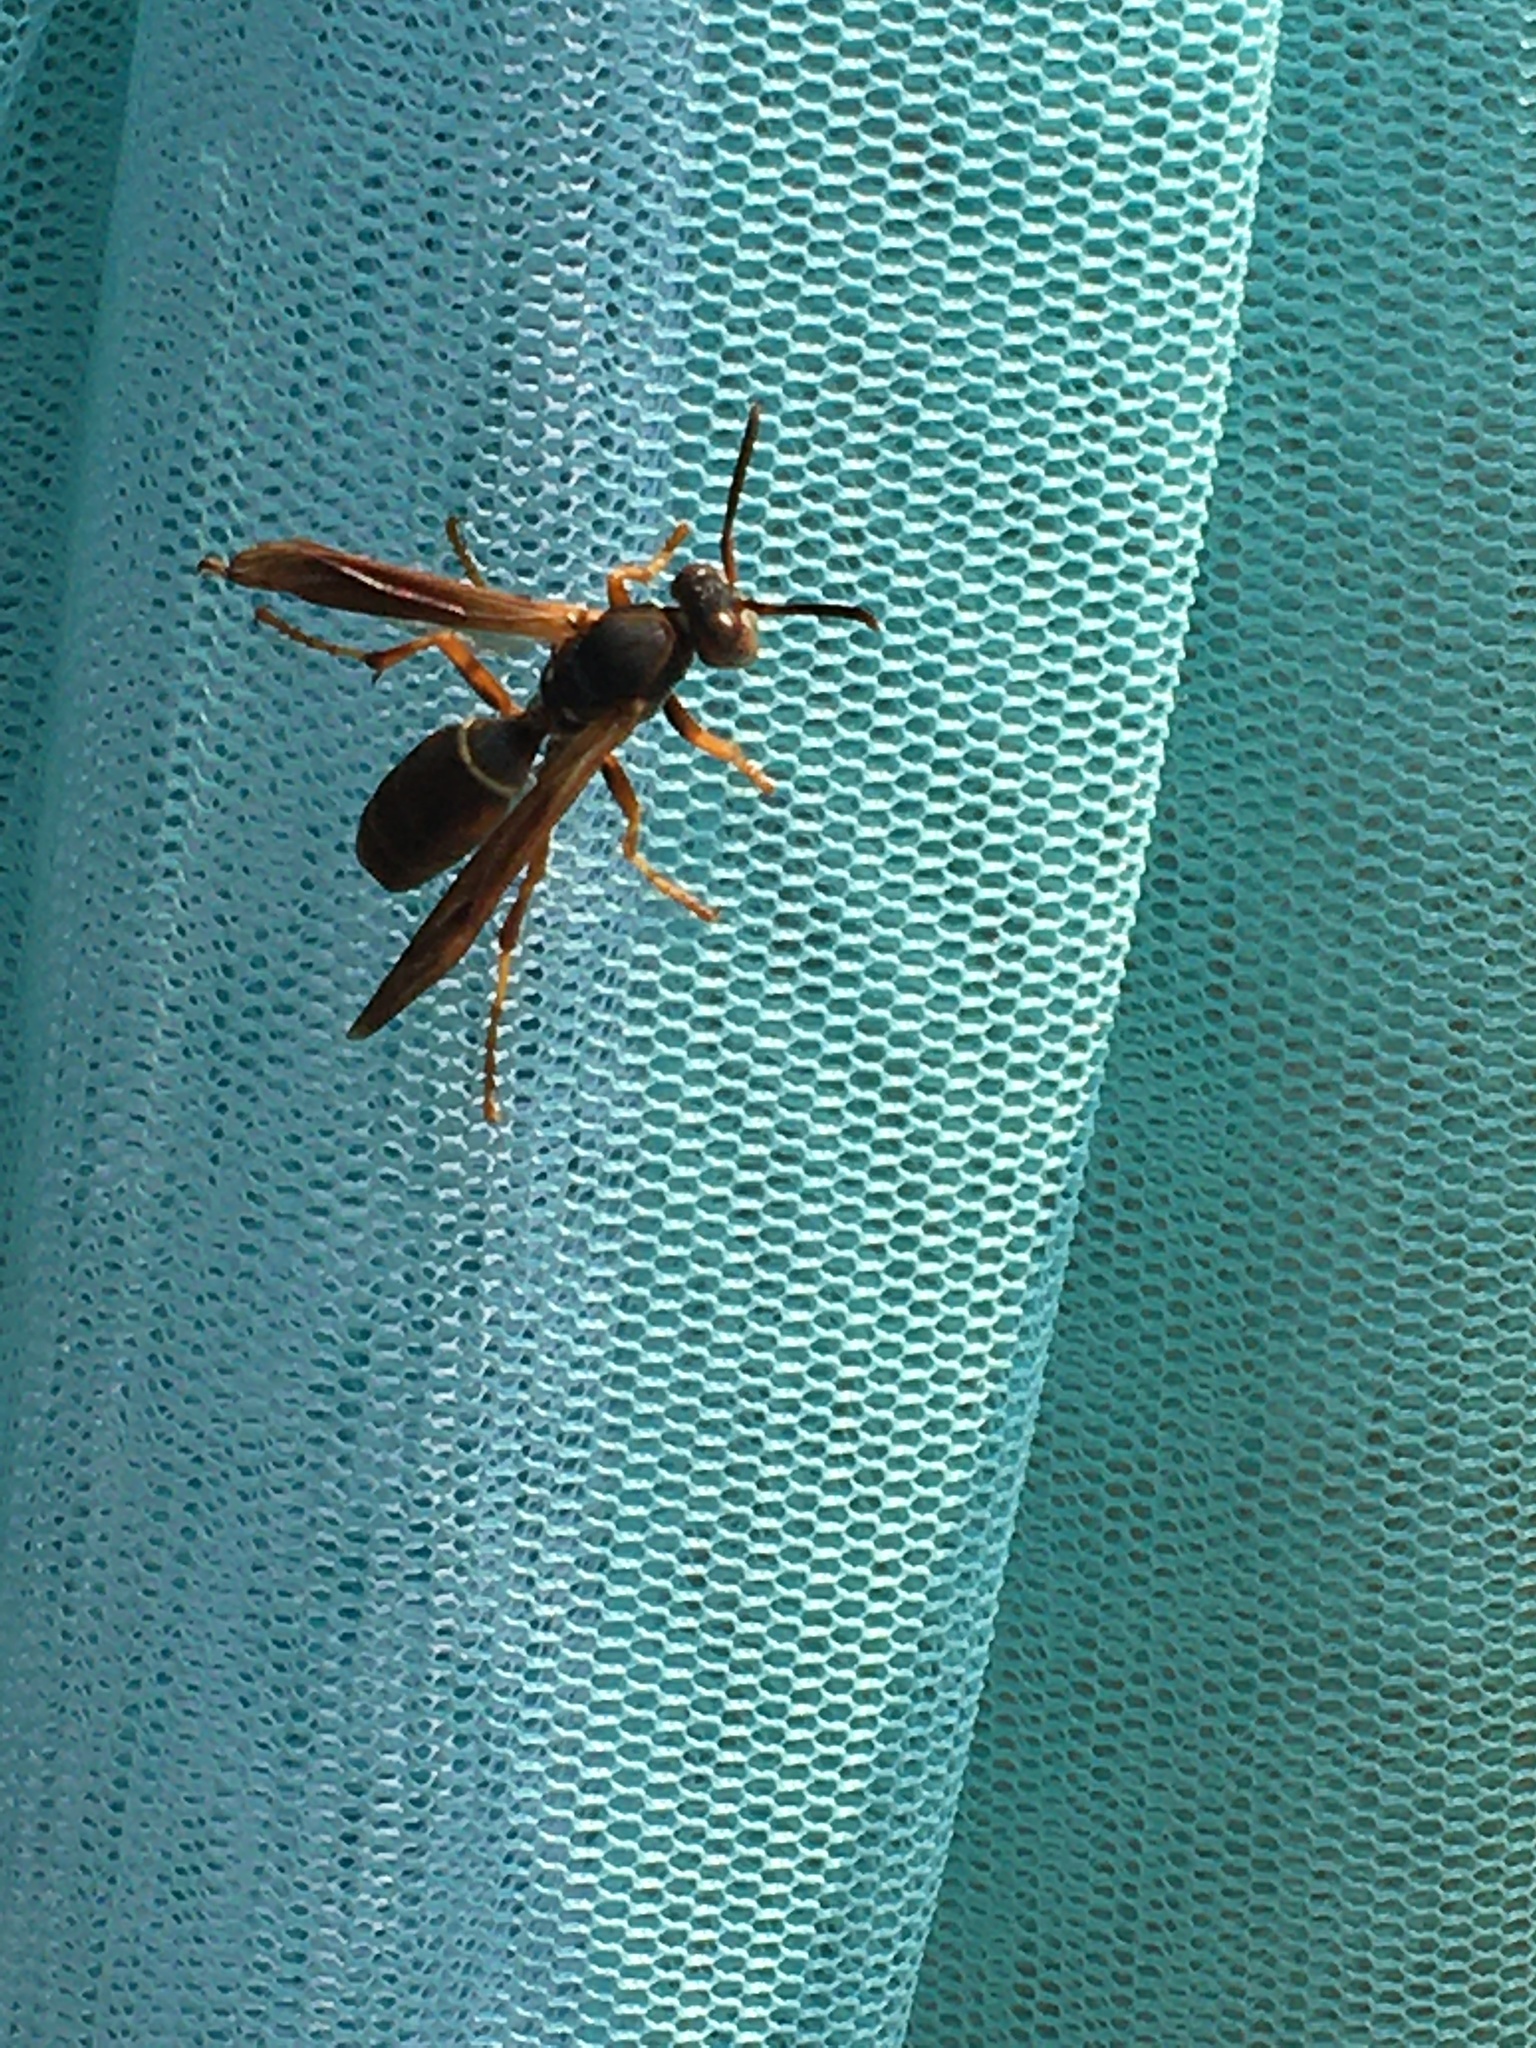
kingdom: Animalia
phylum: Arthropoda
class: Insecta
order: Hymenoptera
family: Eumenidae
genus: Polistes
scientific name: Polistes fuscatus
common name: Dark paper wasp
